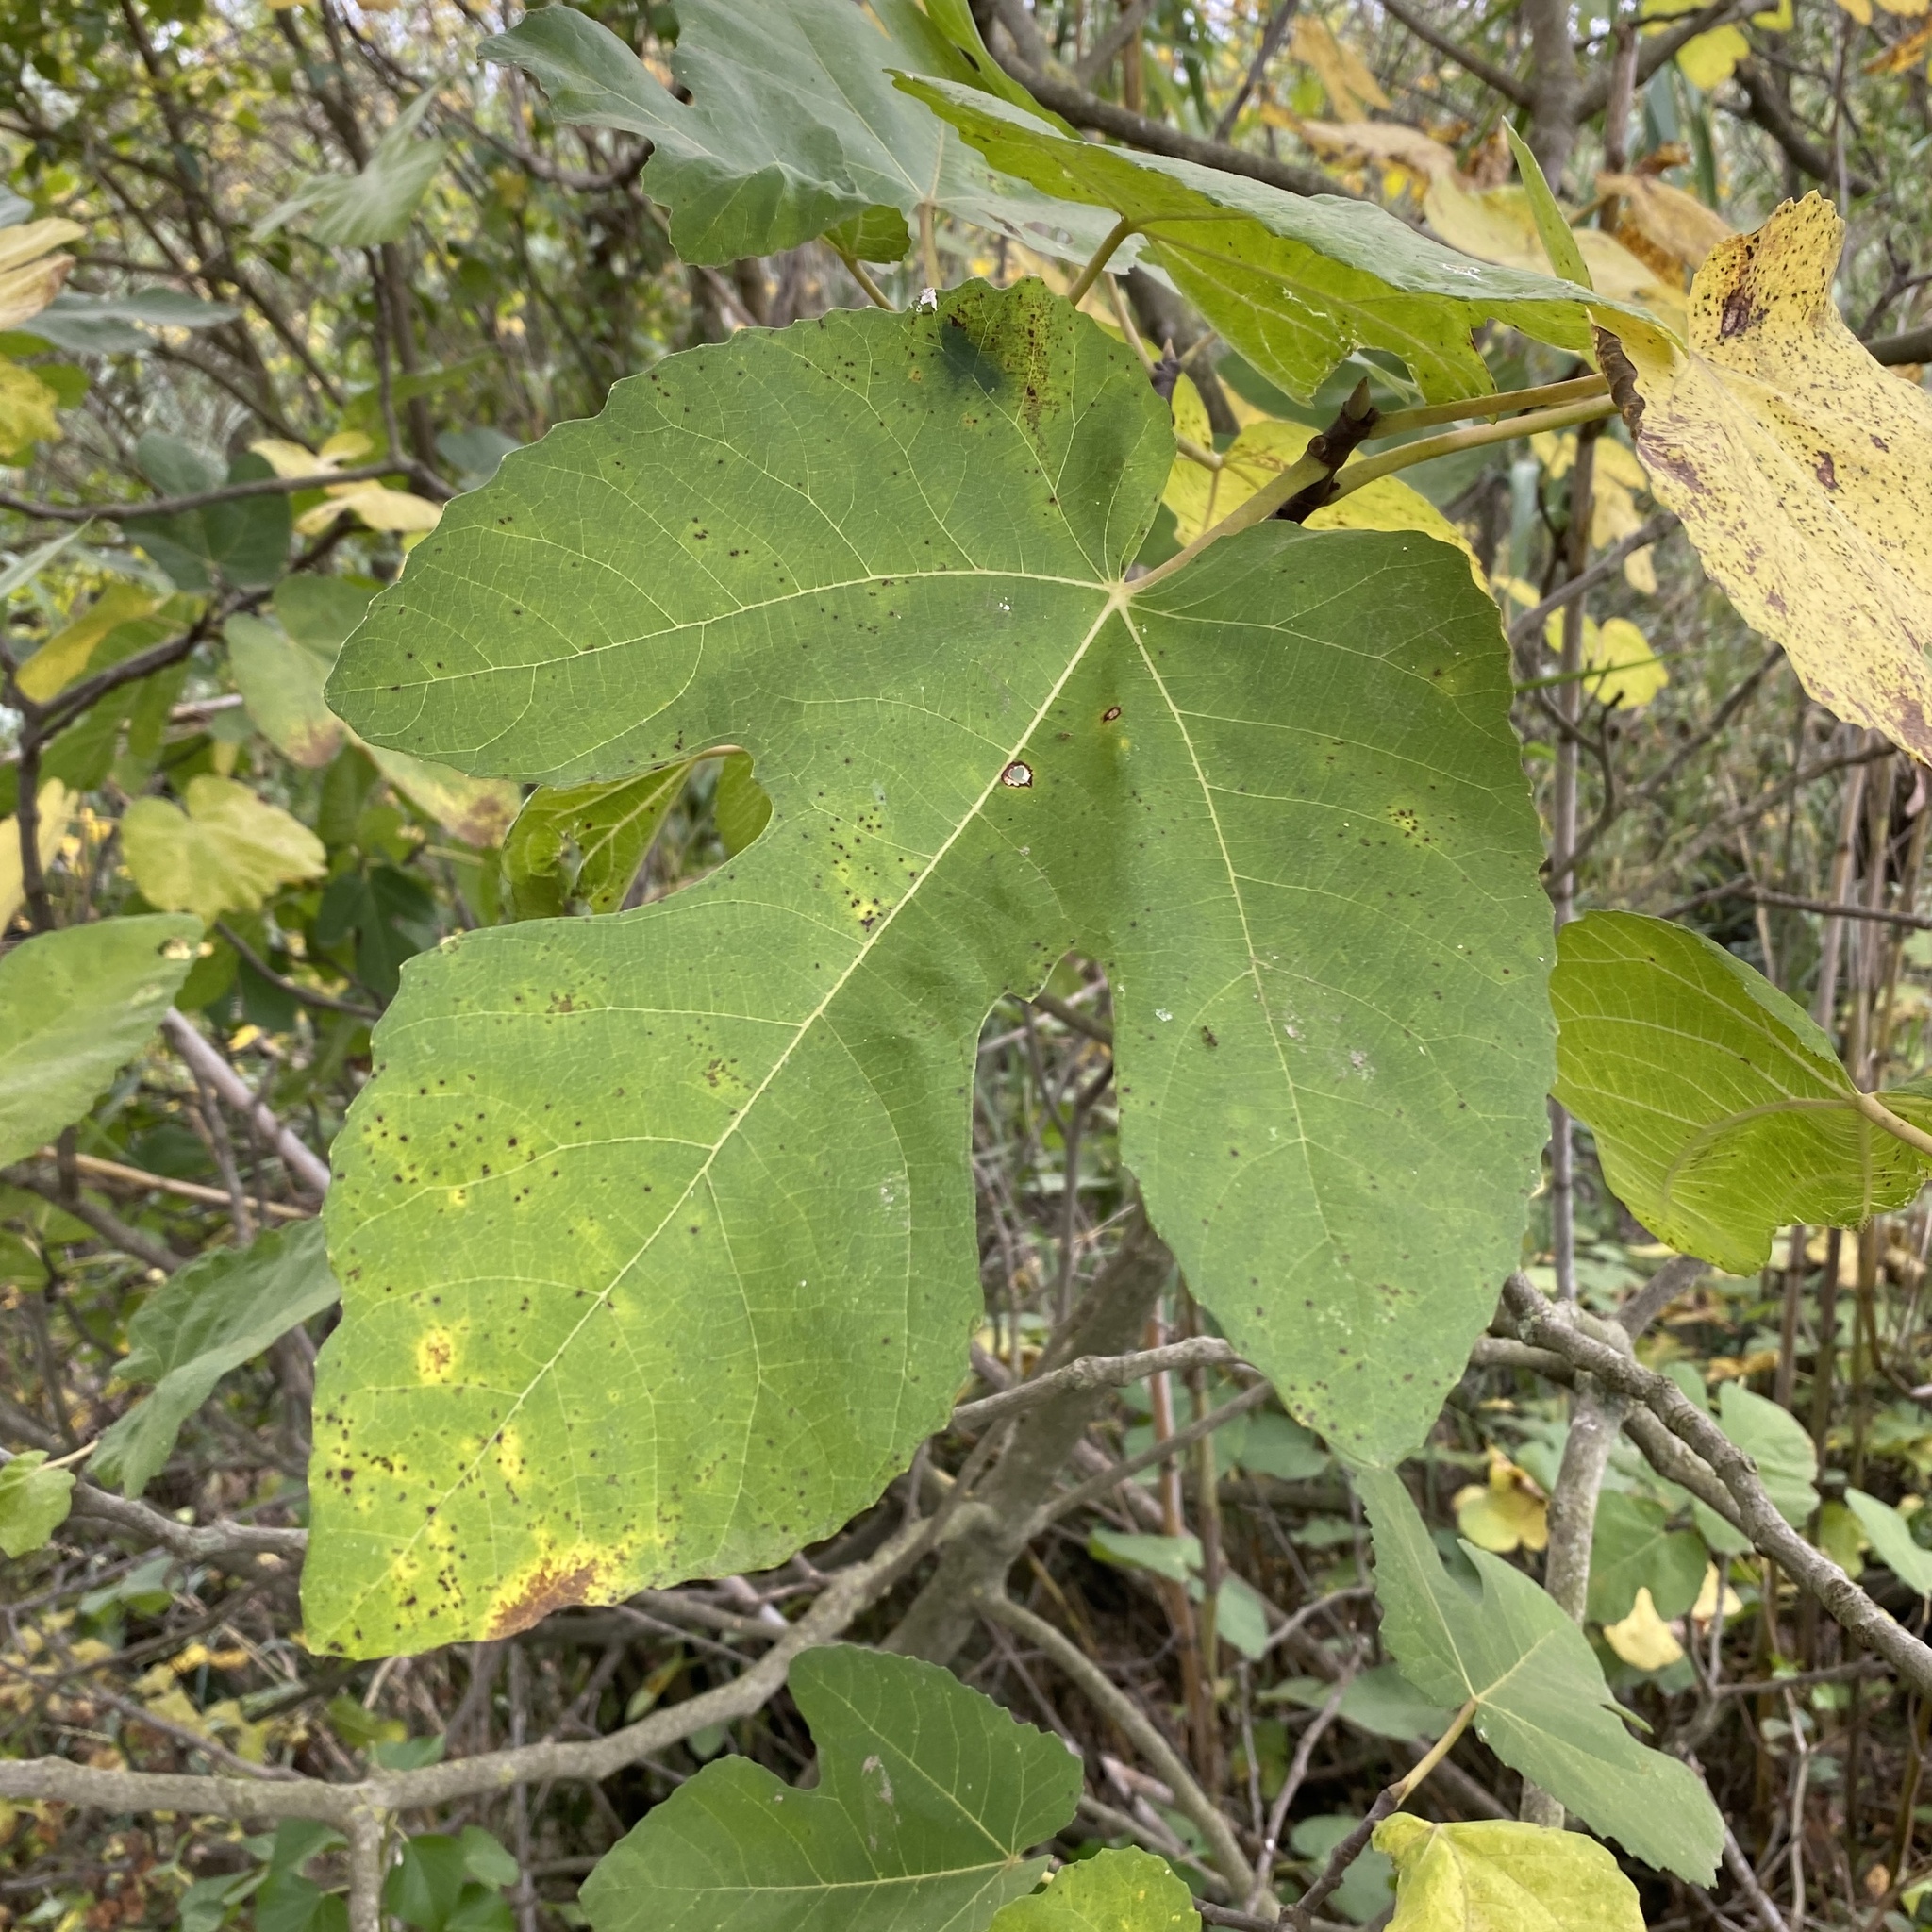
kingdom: Plantae
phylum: Tracheophyta
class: Magnoliopsida
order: Rosales
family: Moraceae
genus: Ficus
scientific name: Ficus carica
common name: Fig
